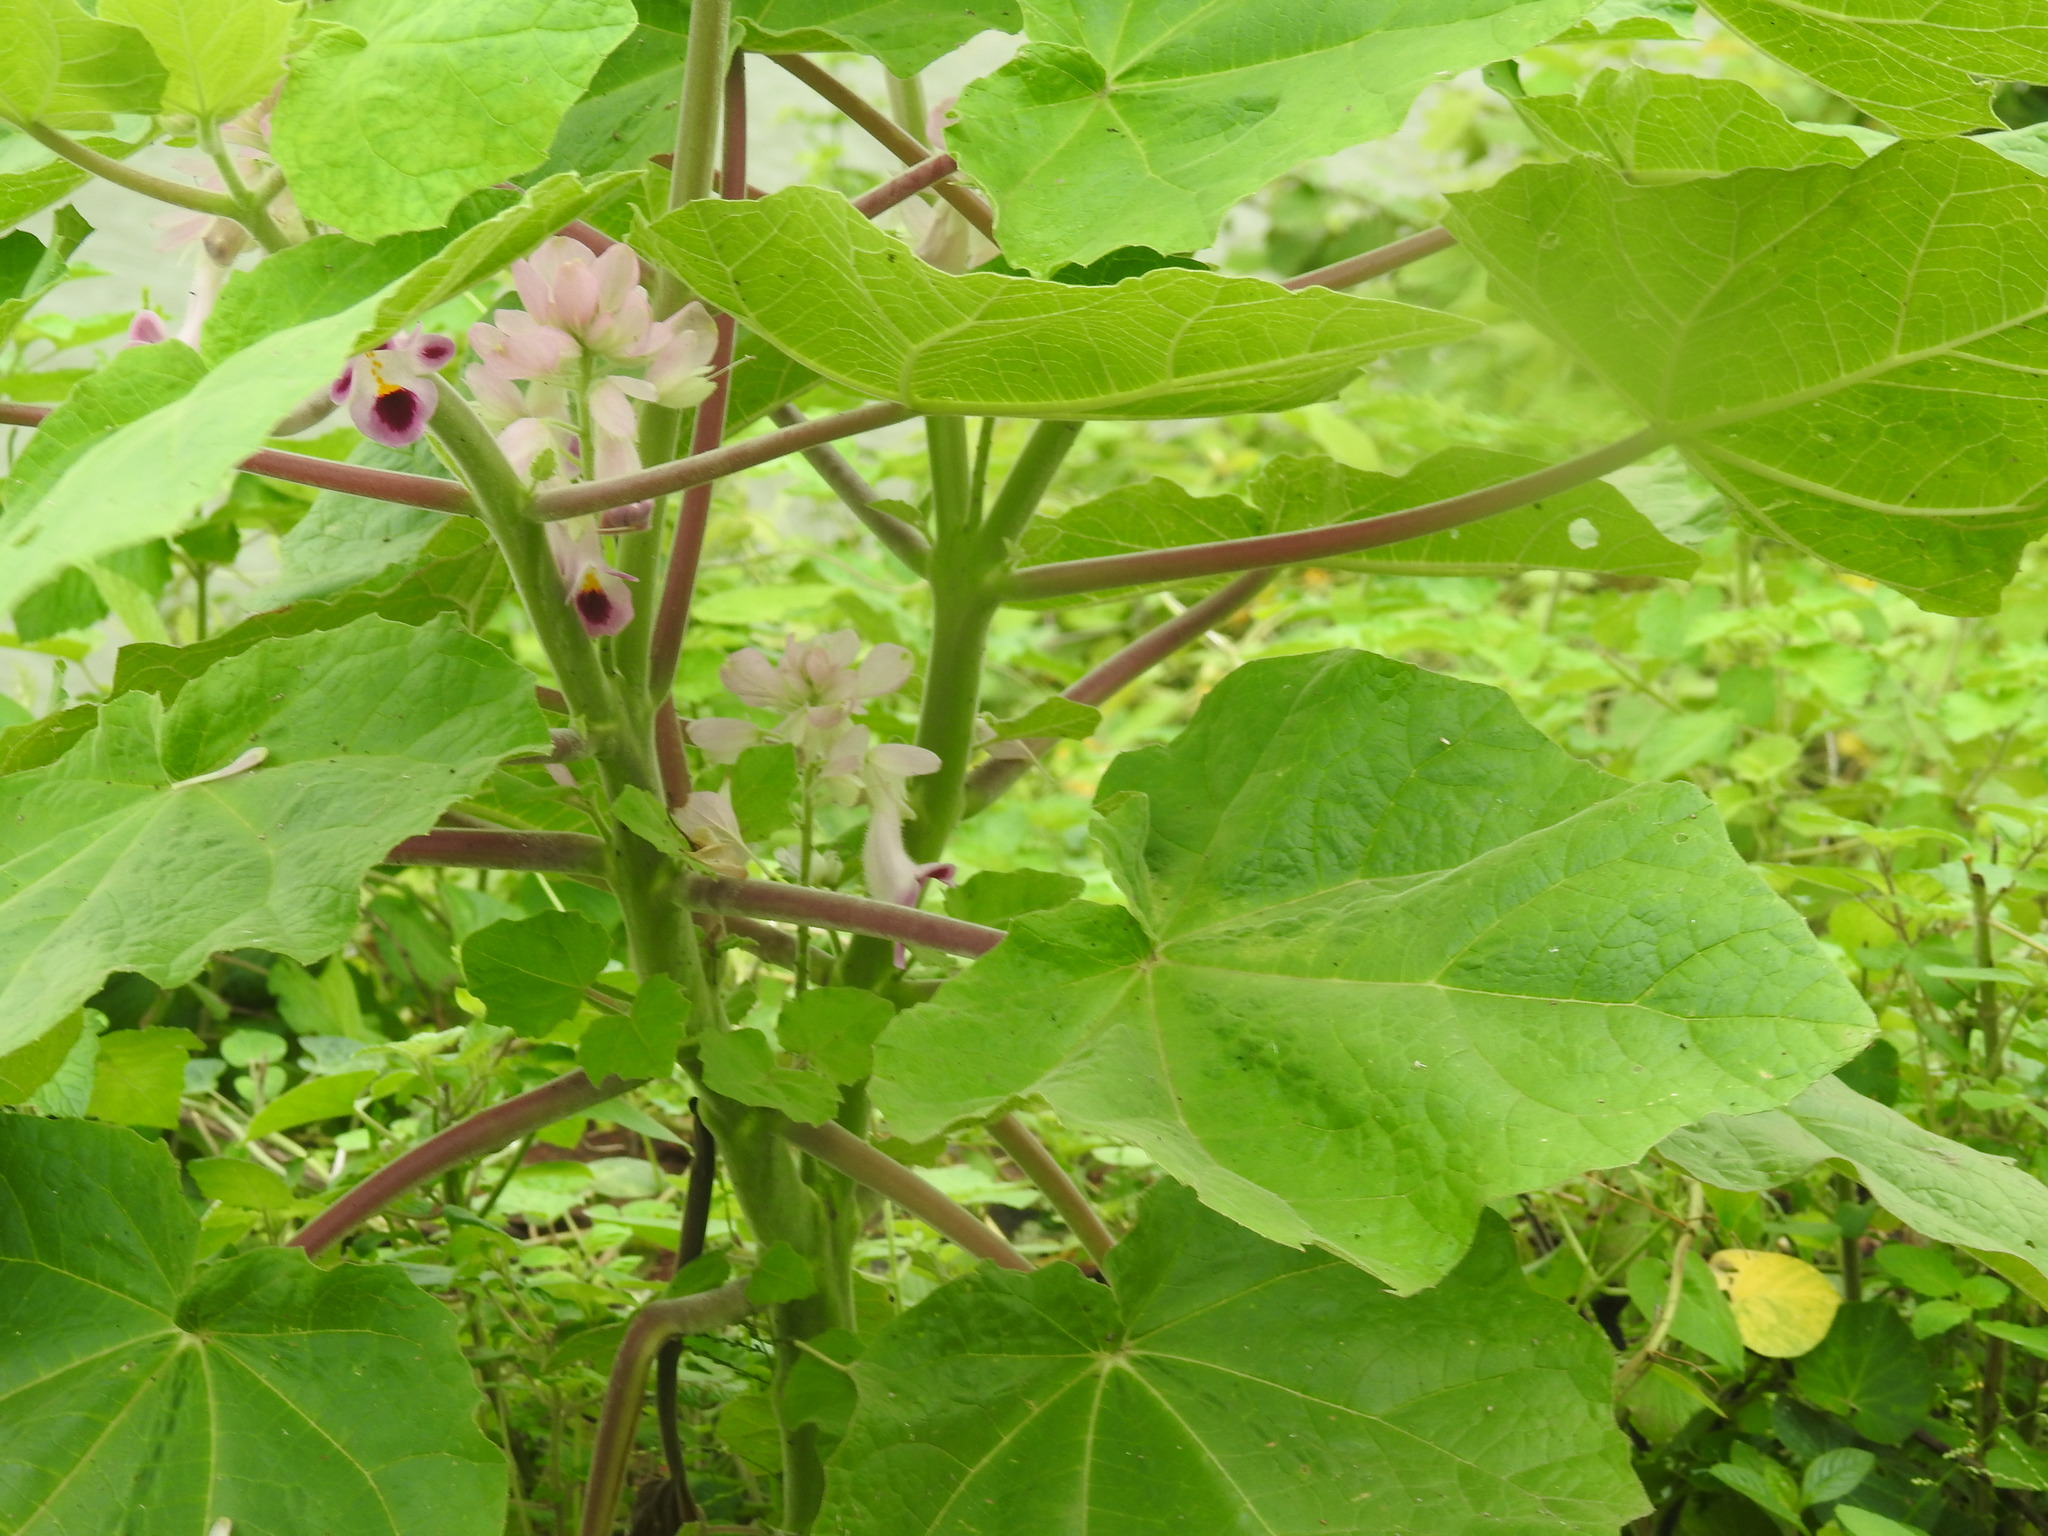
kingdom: Plantae
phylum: Tracheophyta
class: Magnoliopsida
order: Lamiales
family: Martyniaceae
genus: Martynia
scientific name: Martynia annua
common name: Tiger's-claw
